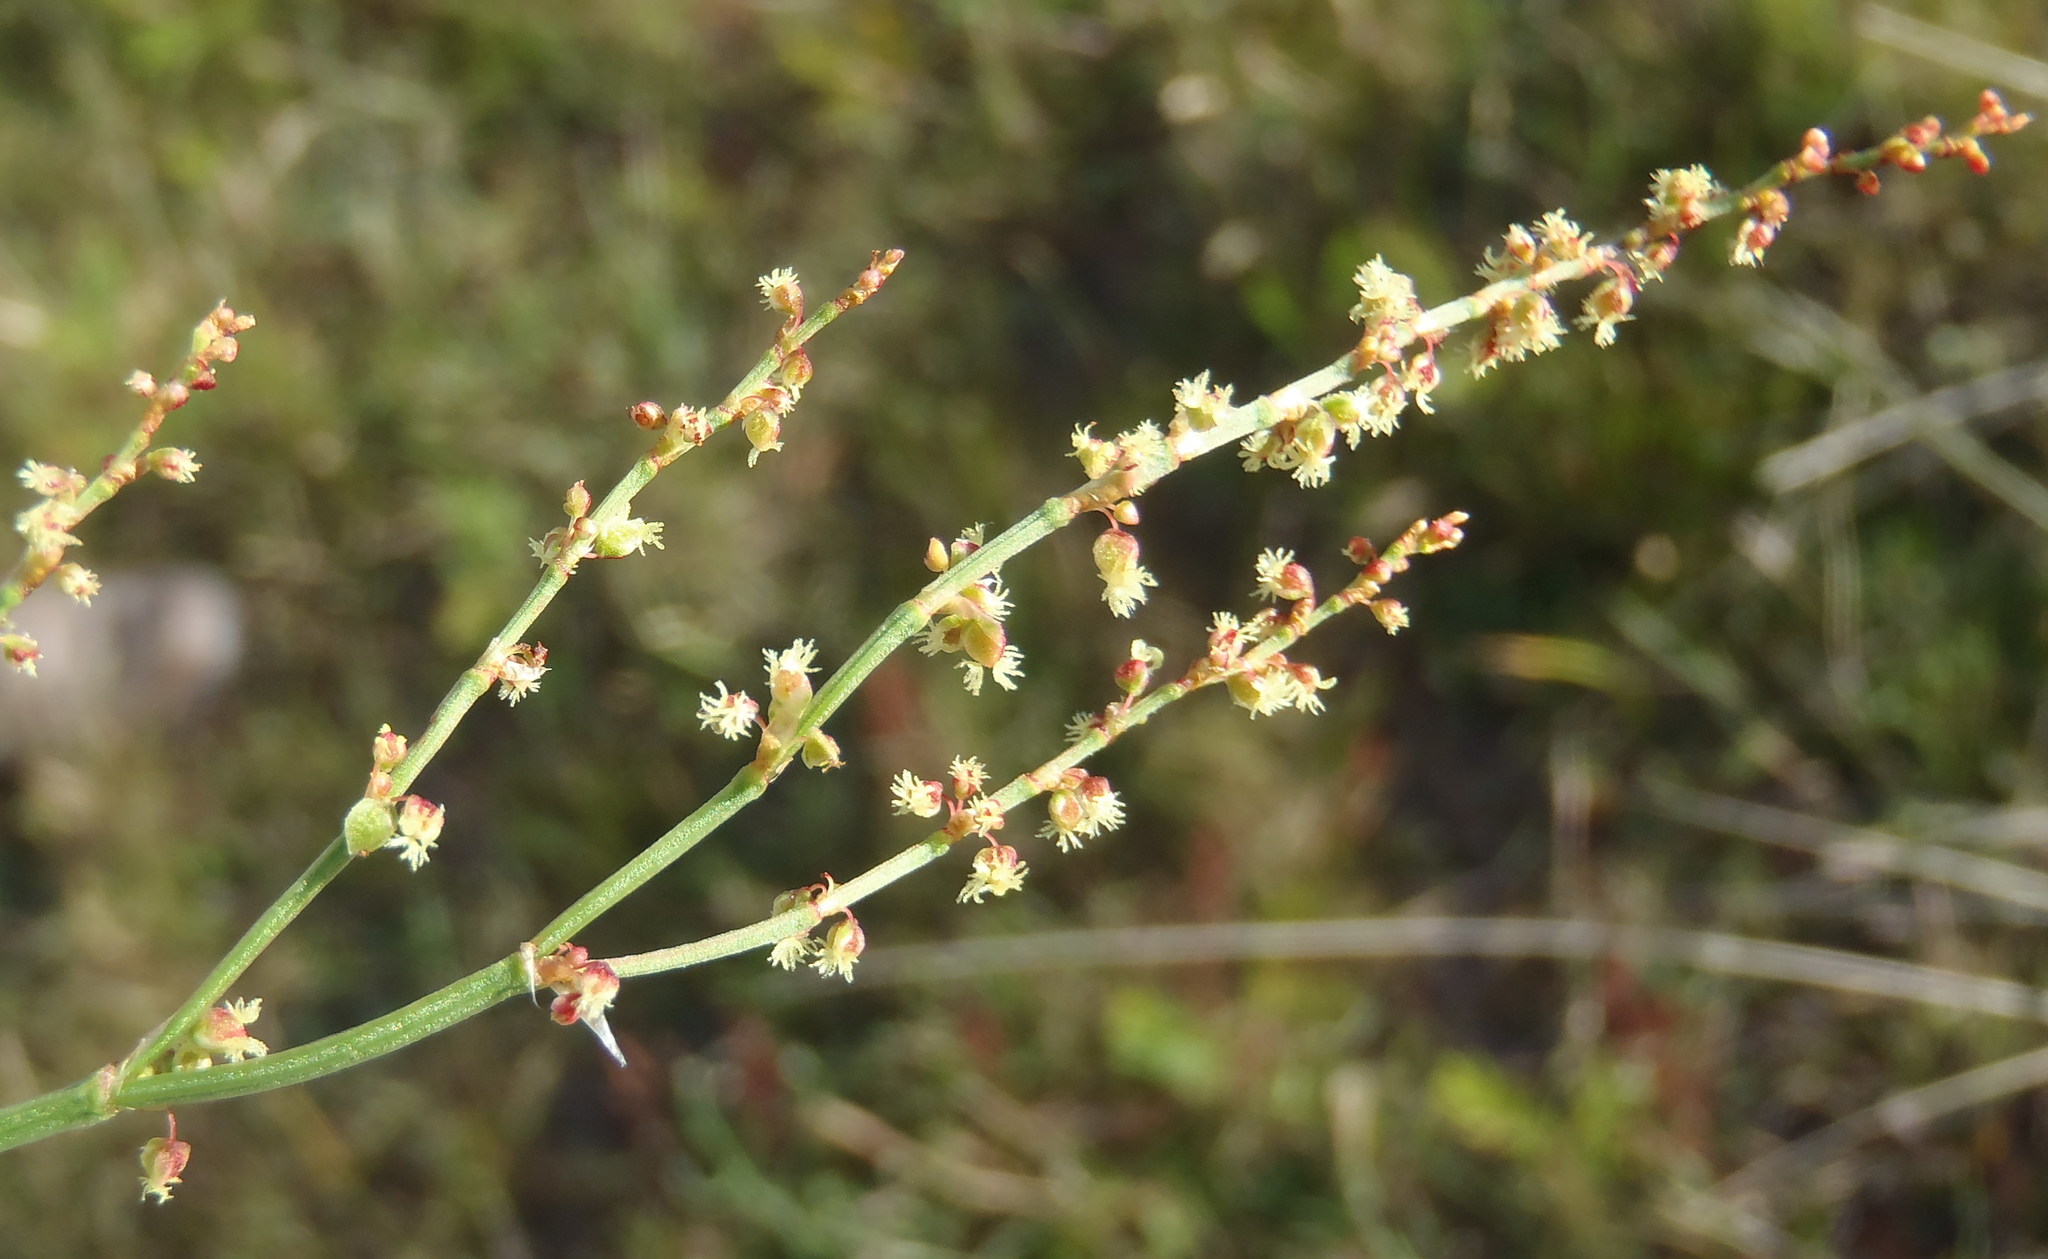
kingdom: Plantae
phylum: Tracheophyta
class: Magnoliopsida
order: Caryophyllales
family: Polygonaceae
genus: Rumex
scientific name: Rumex acetosella
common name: Common sheep sorrel
